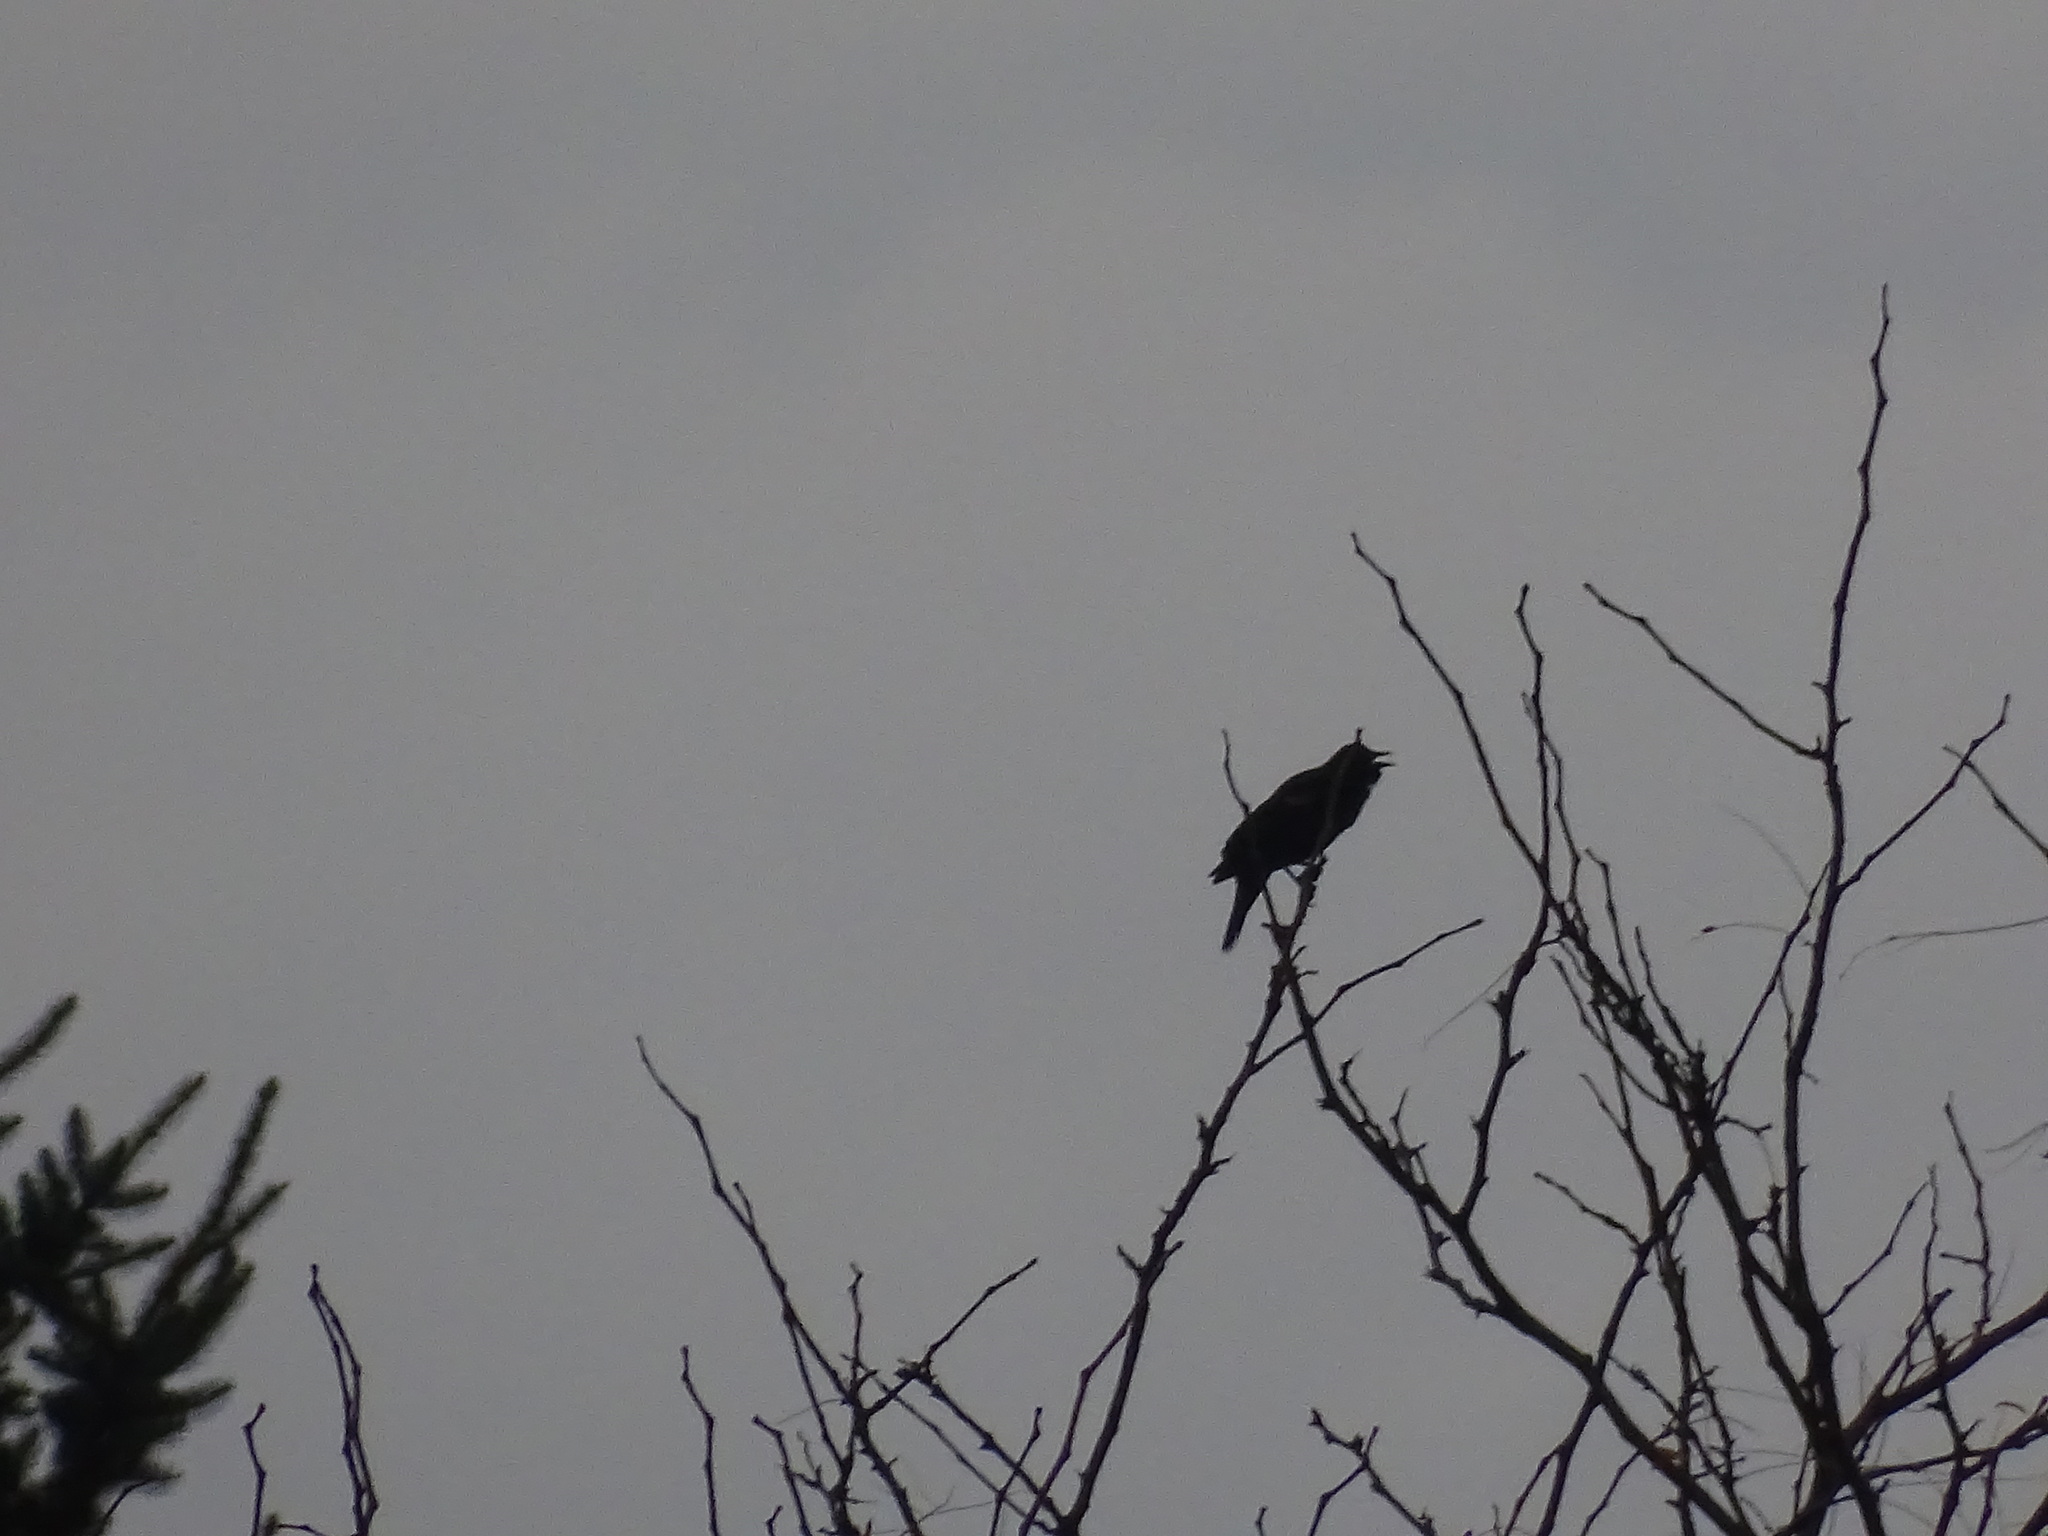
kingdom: Animalia
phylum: Chordata
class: Aves
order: Passeriformes
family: Icteridae
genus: Agelaius
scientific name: Agelaius phoeniceus
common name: Red-winged blackbird
